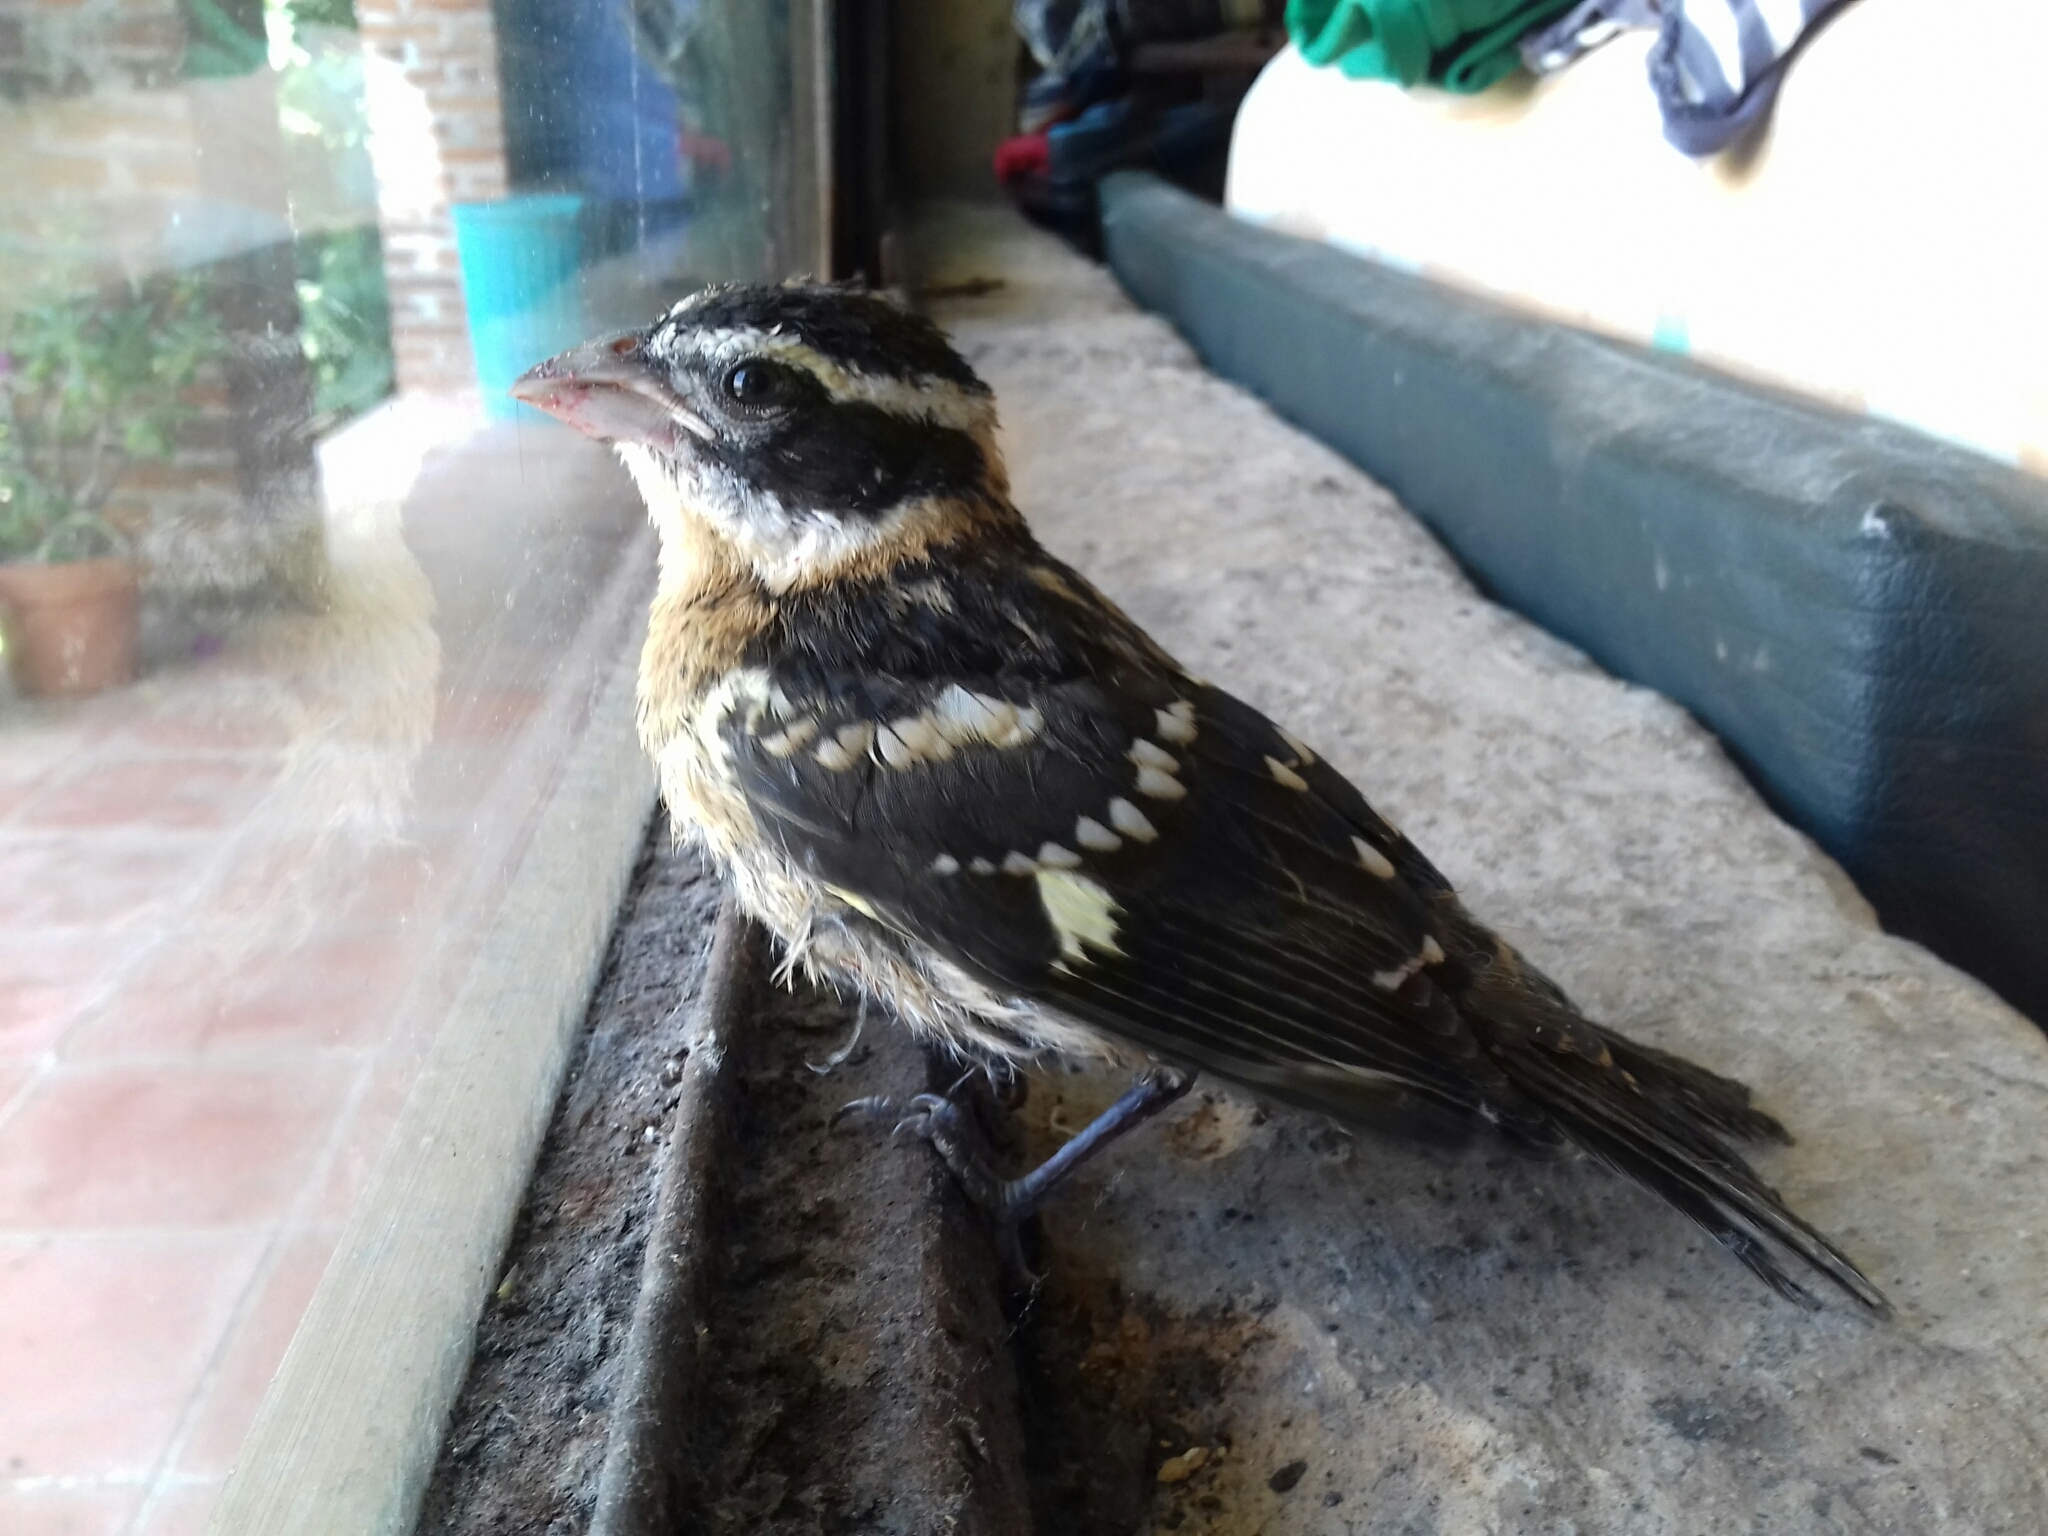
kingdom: Animalia
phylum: Chordata
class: Aves
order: Passeriformes
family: Cardinalidae
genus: Pheucticus
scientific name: Pheucticus melanocephalus
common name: Black-headed grosbeak
